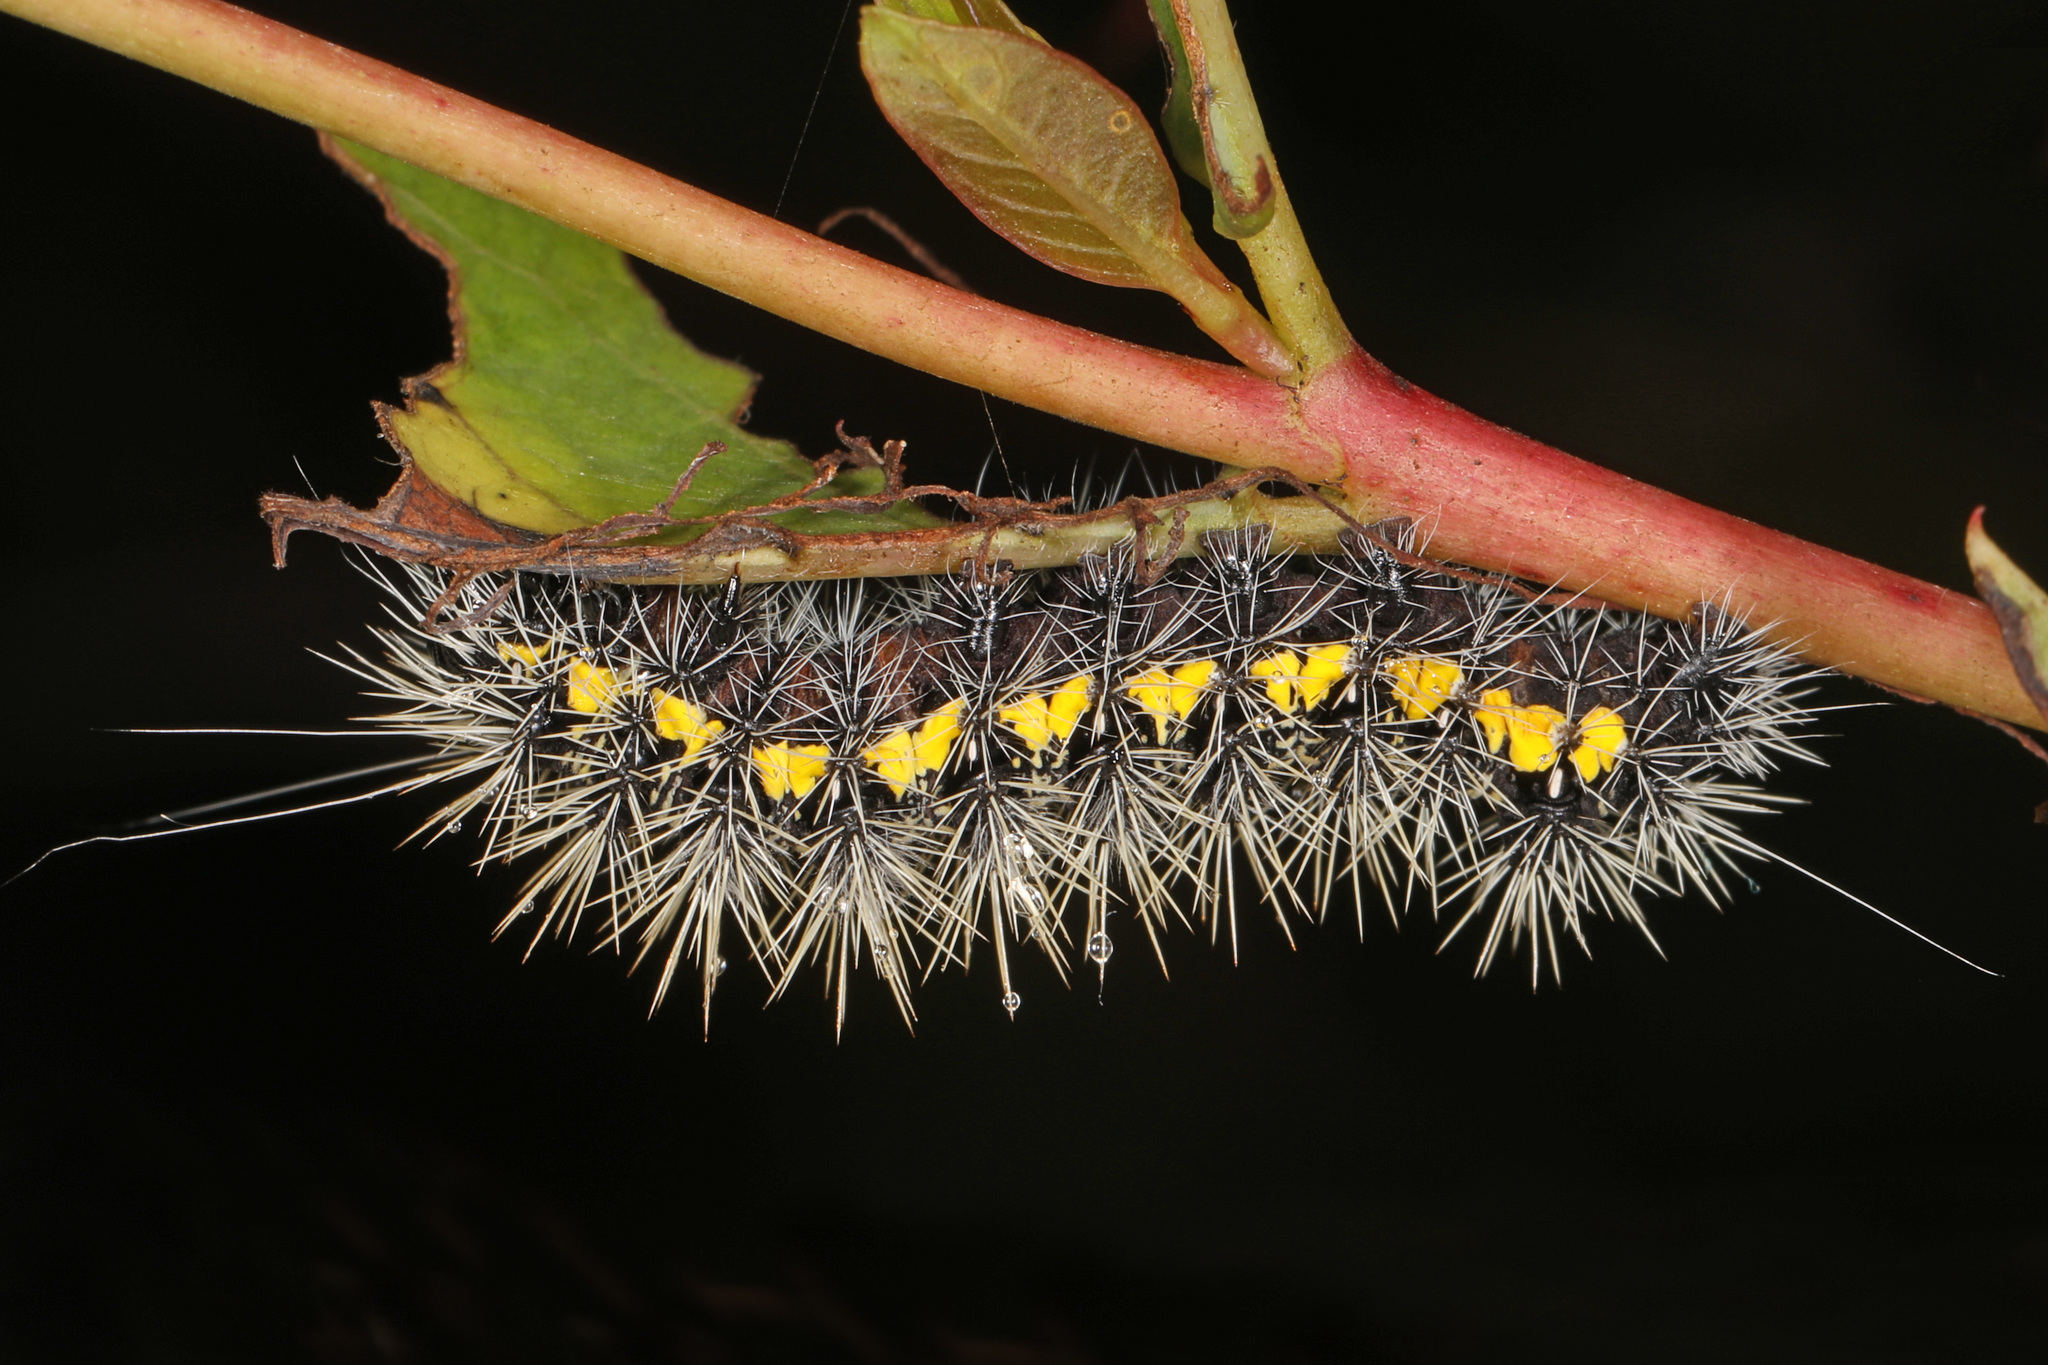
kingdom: Animalia
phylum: Arthropoda
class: Insecta
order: Lepidoptera
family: Noctuidae
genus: Acronicta
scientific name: Acronicta oblinita
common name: Smeared dagger
